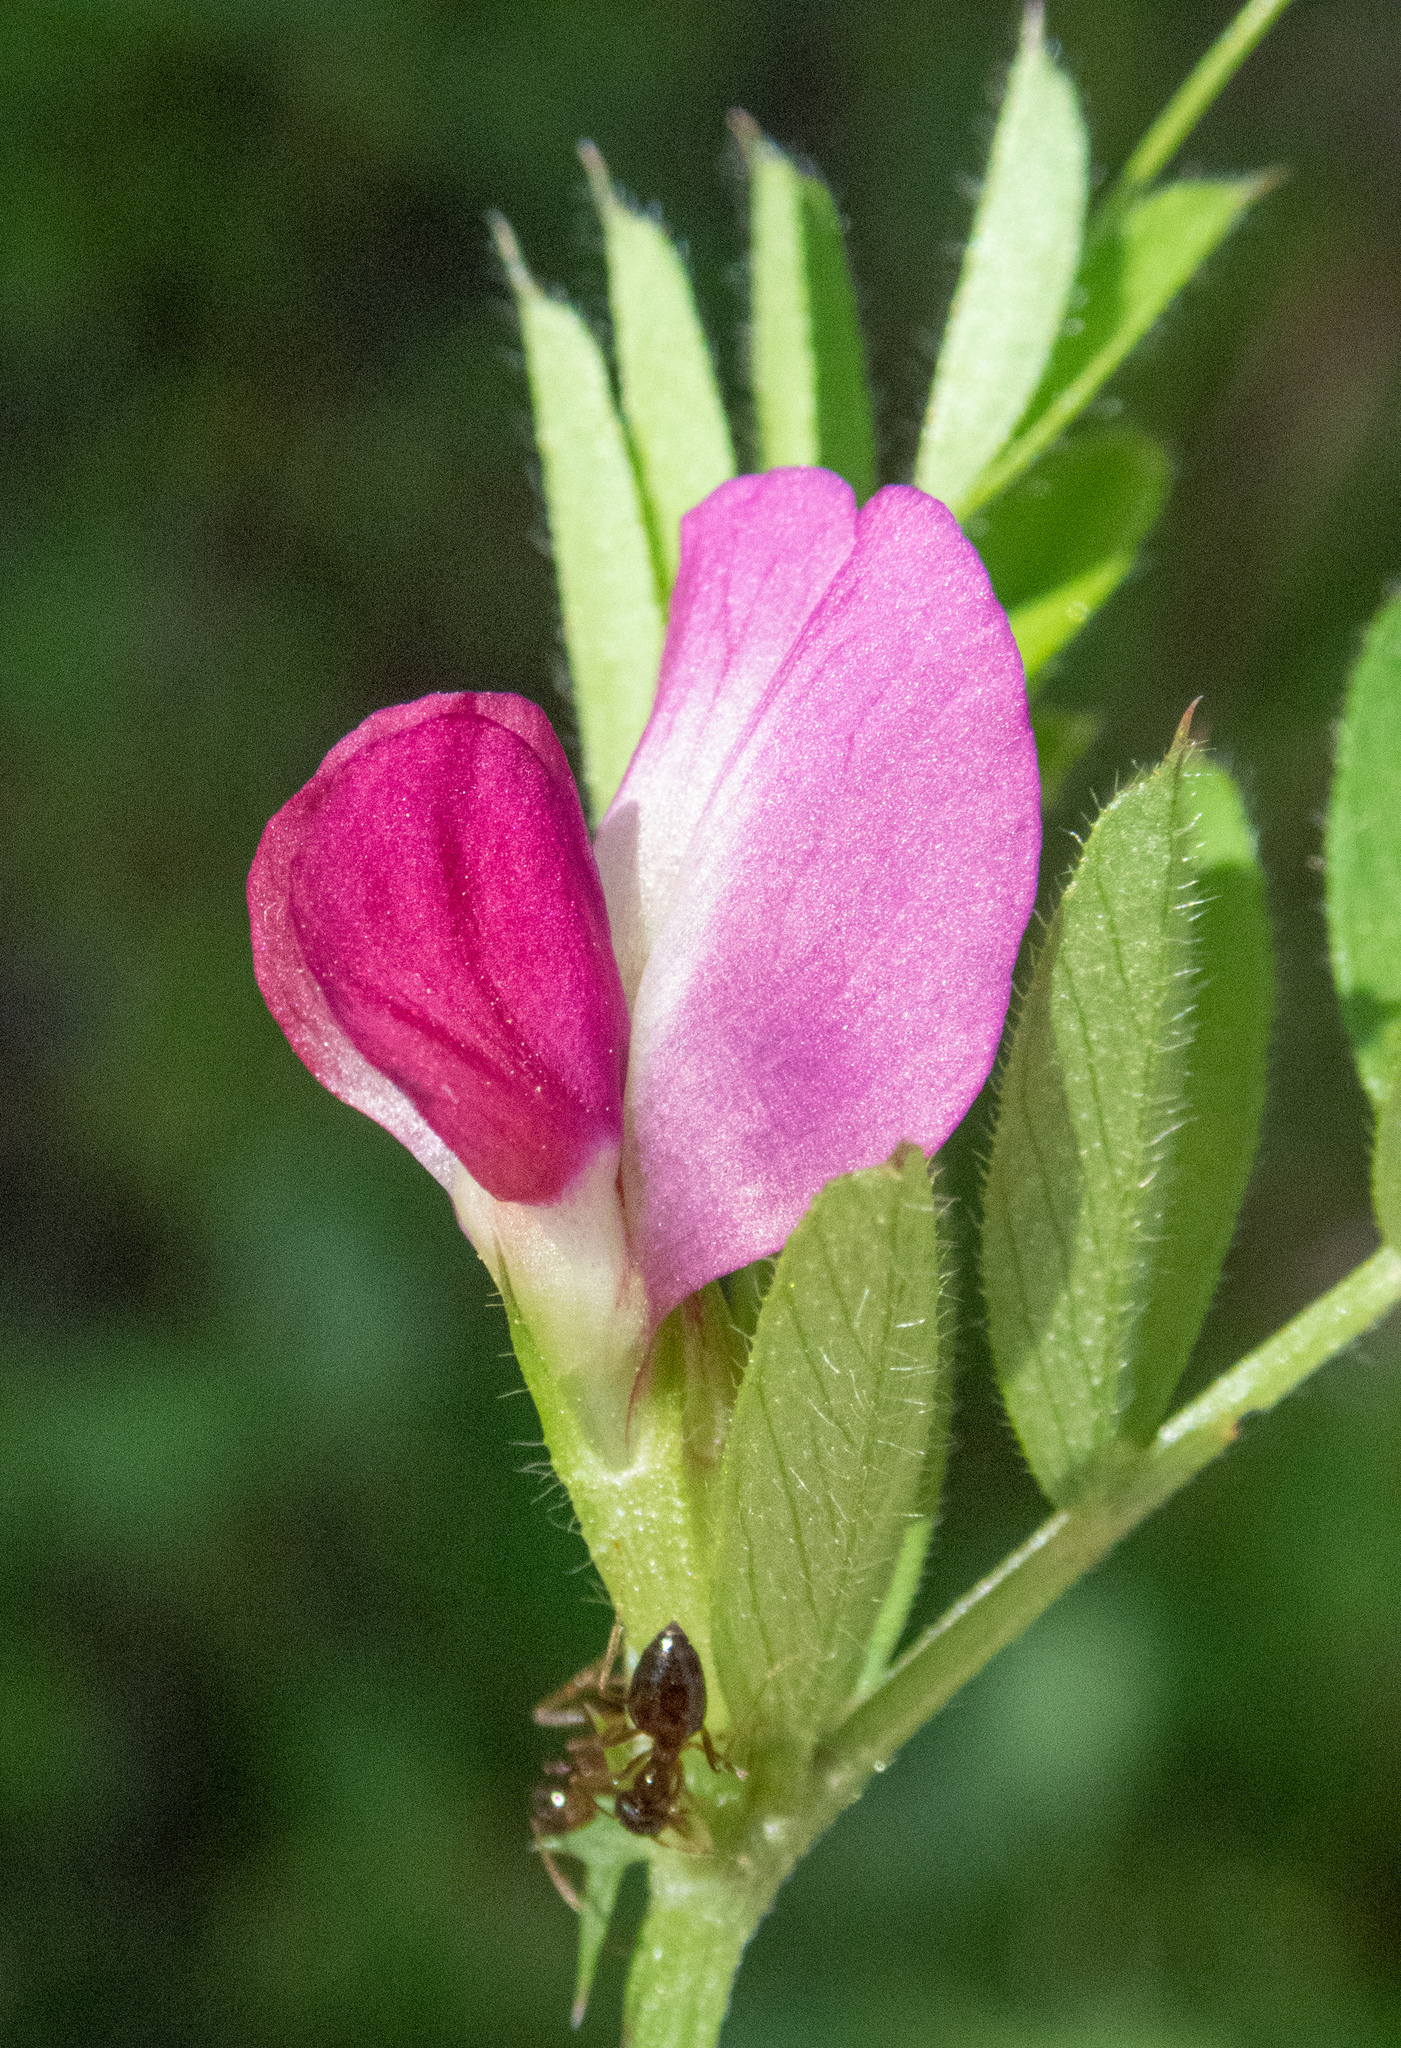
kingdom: Plantae
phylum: Tracheophyta
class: Magnoliopsida
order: Fabales
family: Fabaceae
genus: Vicia
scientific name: Vicia sativa
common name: Garden vetch
